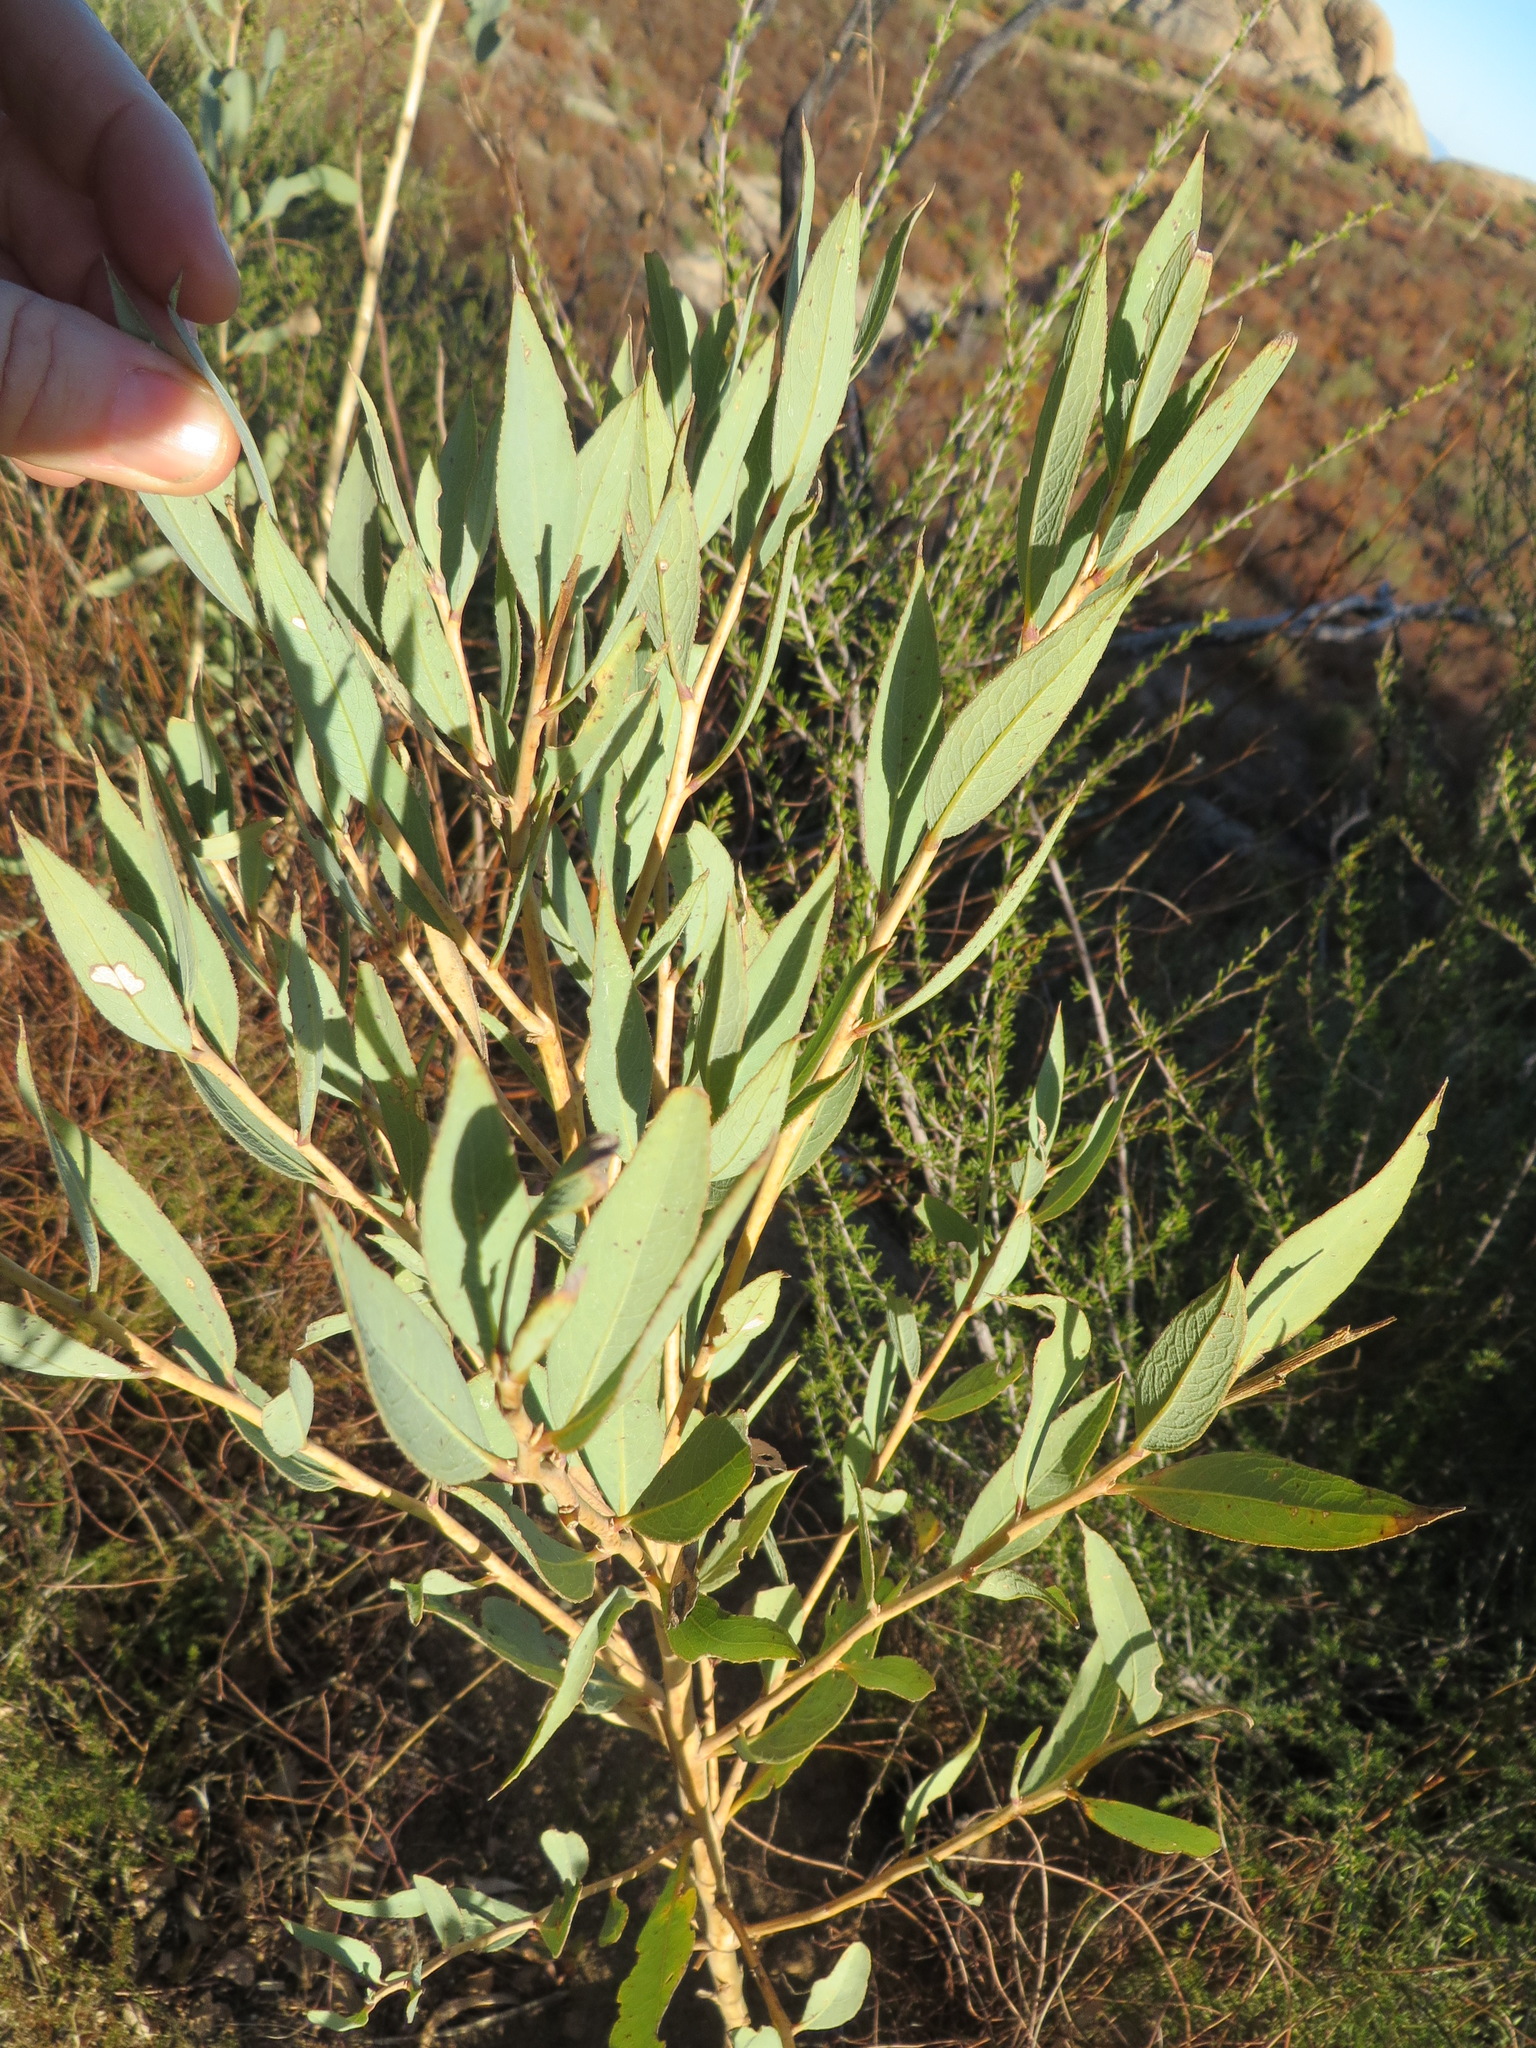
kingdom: Plantae
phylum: Tracheophyta
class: Magnoliopsida
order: Ranunculales
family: Papaveraceae
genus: Dendromecon
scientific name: Dendromecon rigida
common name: Tree poppy
